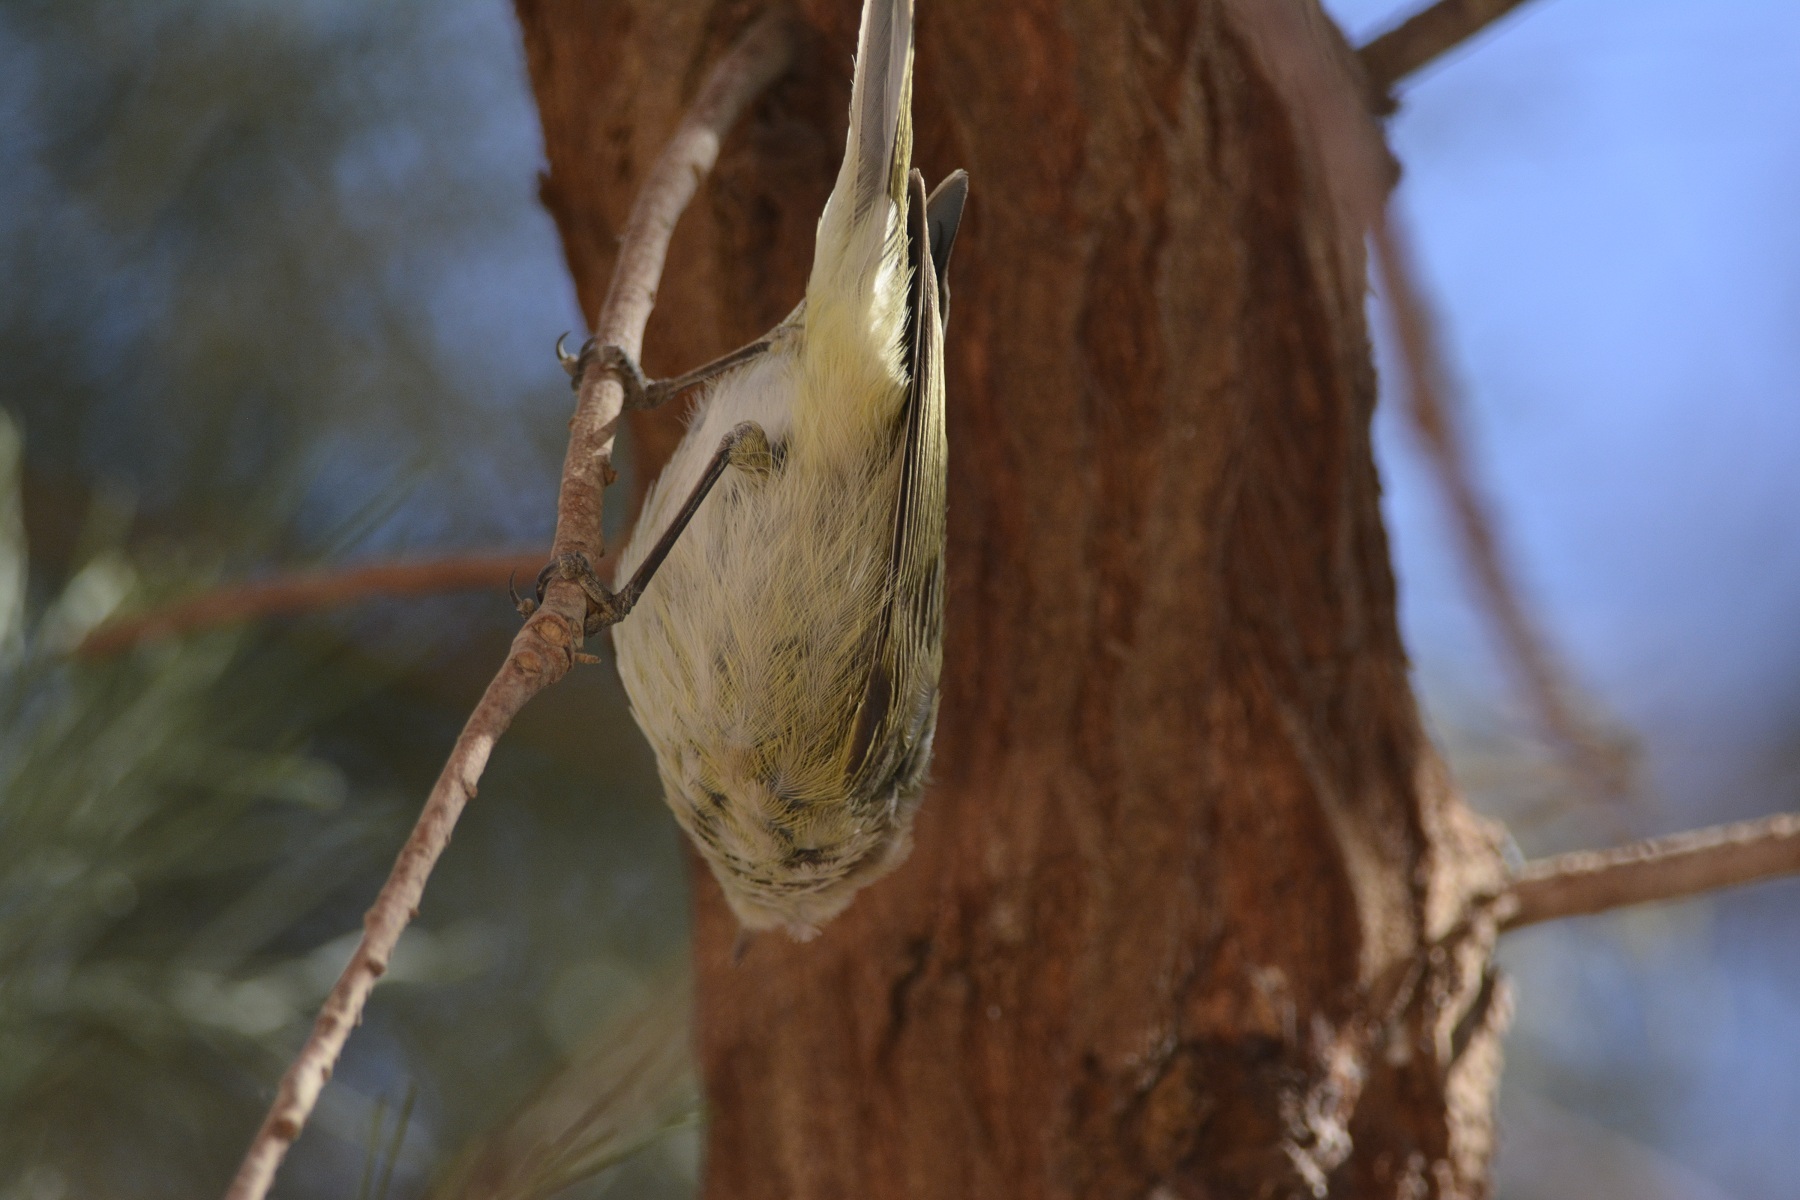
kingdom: Animalia
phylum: Chordata
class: Aves
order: Passeriformes
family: Phylloscopidae
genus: Phylloscopus
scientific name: Phylloscopus collybita
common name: Common chiffchaff
